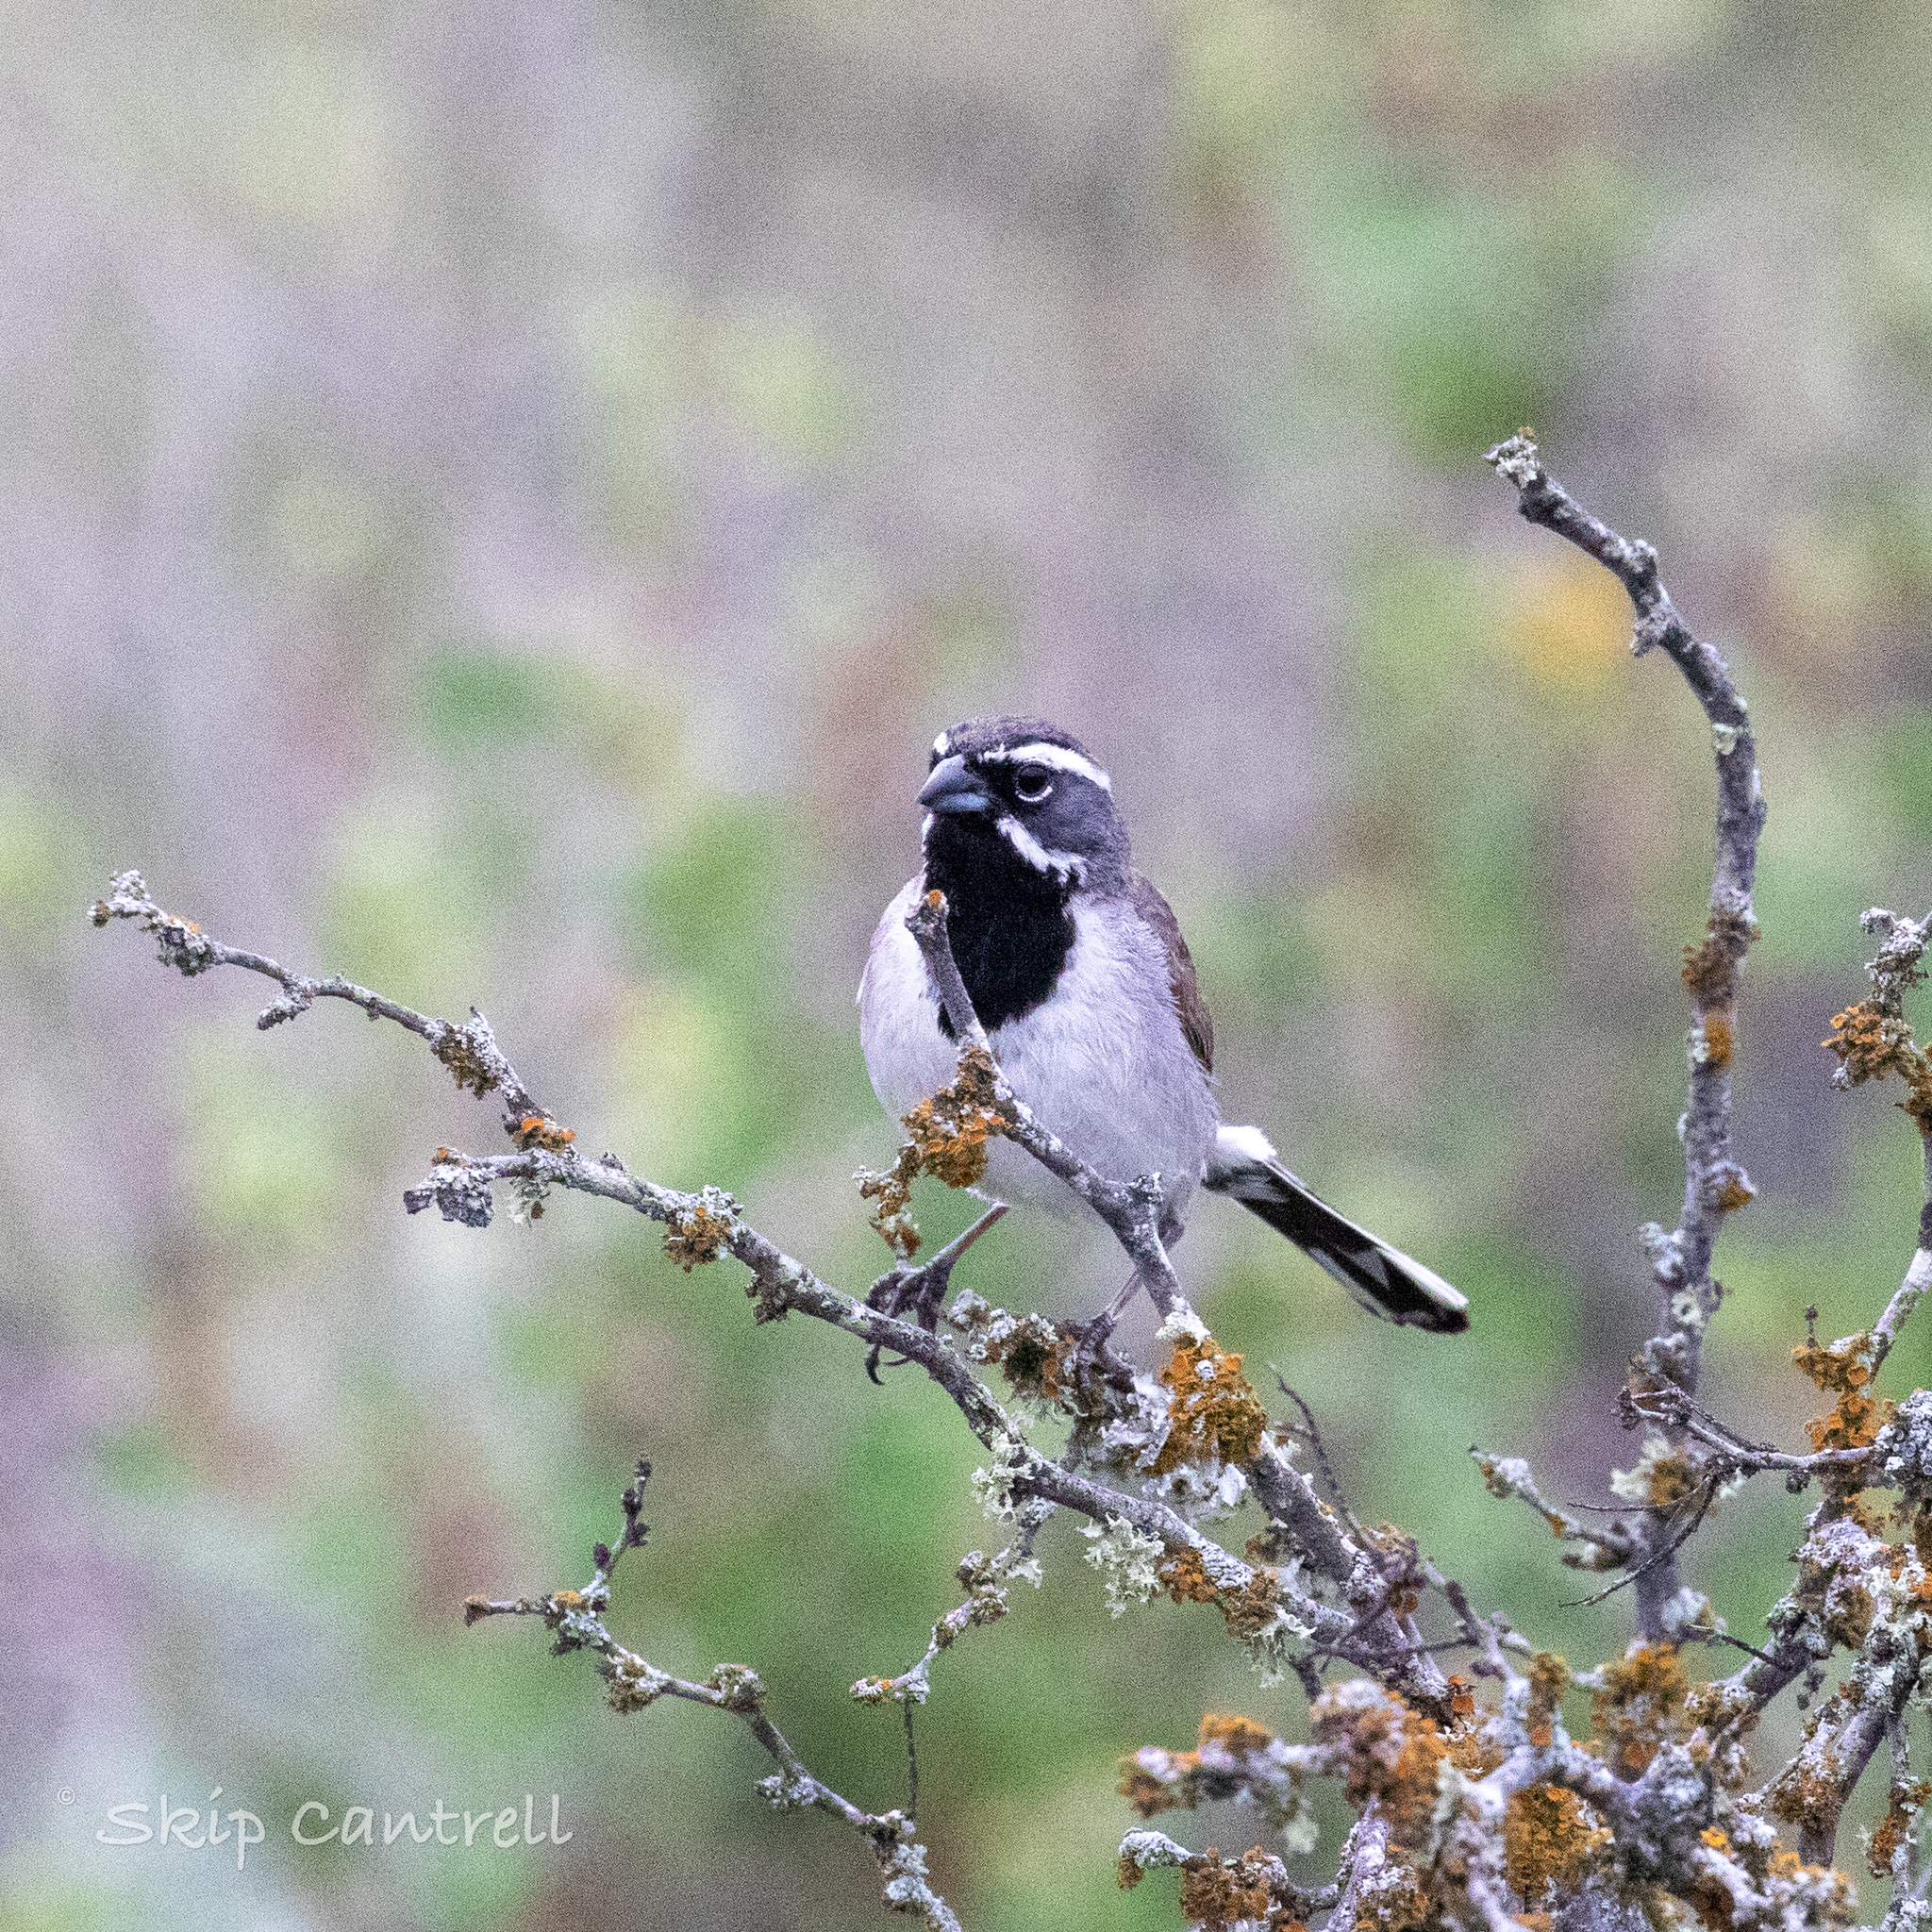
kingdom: Animalia
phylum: Chordata
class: Aves
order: Passeriformes
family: Passerellidae
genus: Amphispiza
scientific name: Amphispiza bilineata
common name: Black-throated sparrow
